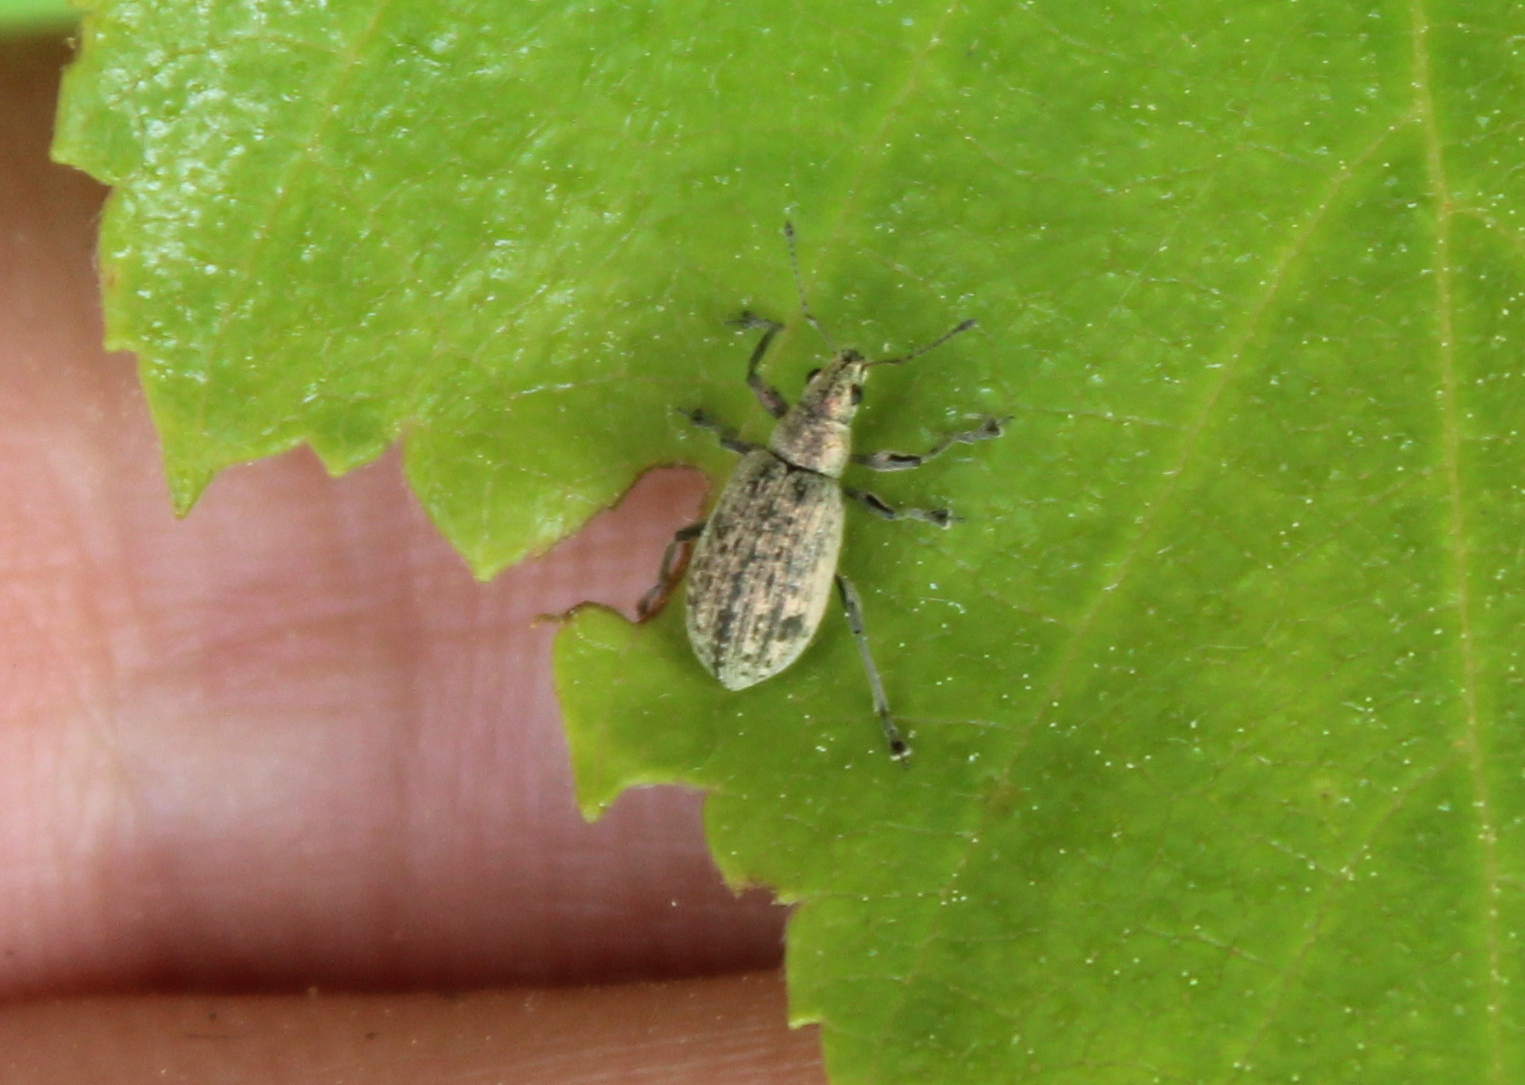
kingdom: Animalia
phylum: Arthropoda
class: Insecta
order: Coleoptera
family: Curculionidae
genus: Polydrusus
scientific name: Polydrusus cervinus
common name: Weevil
